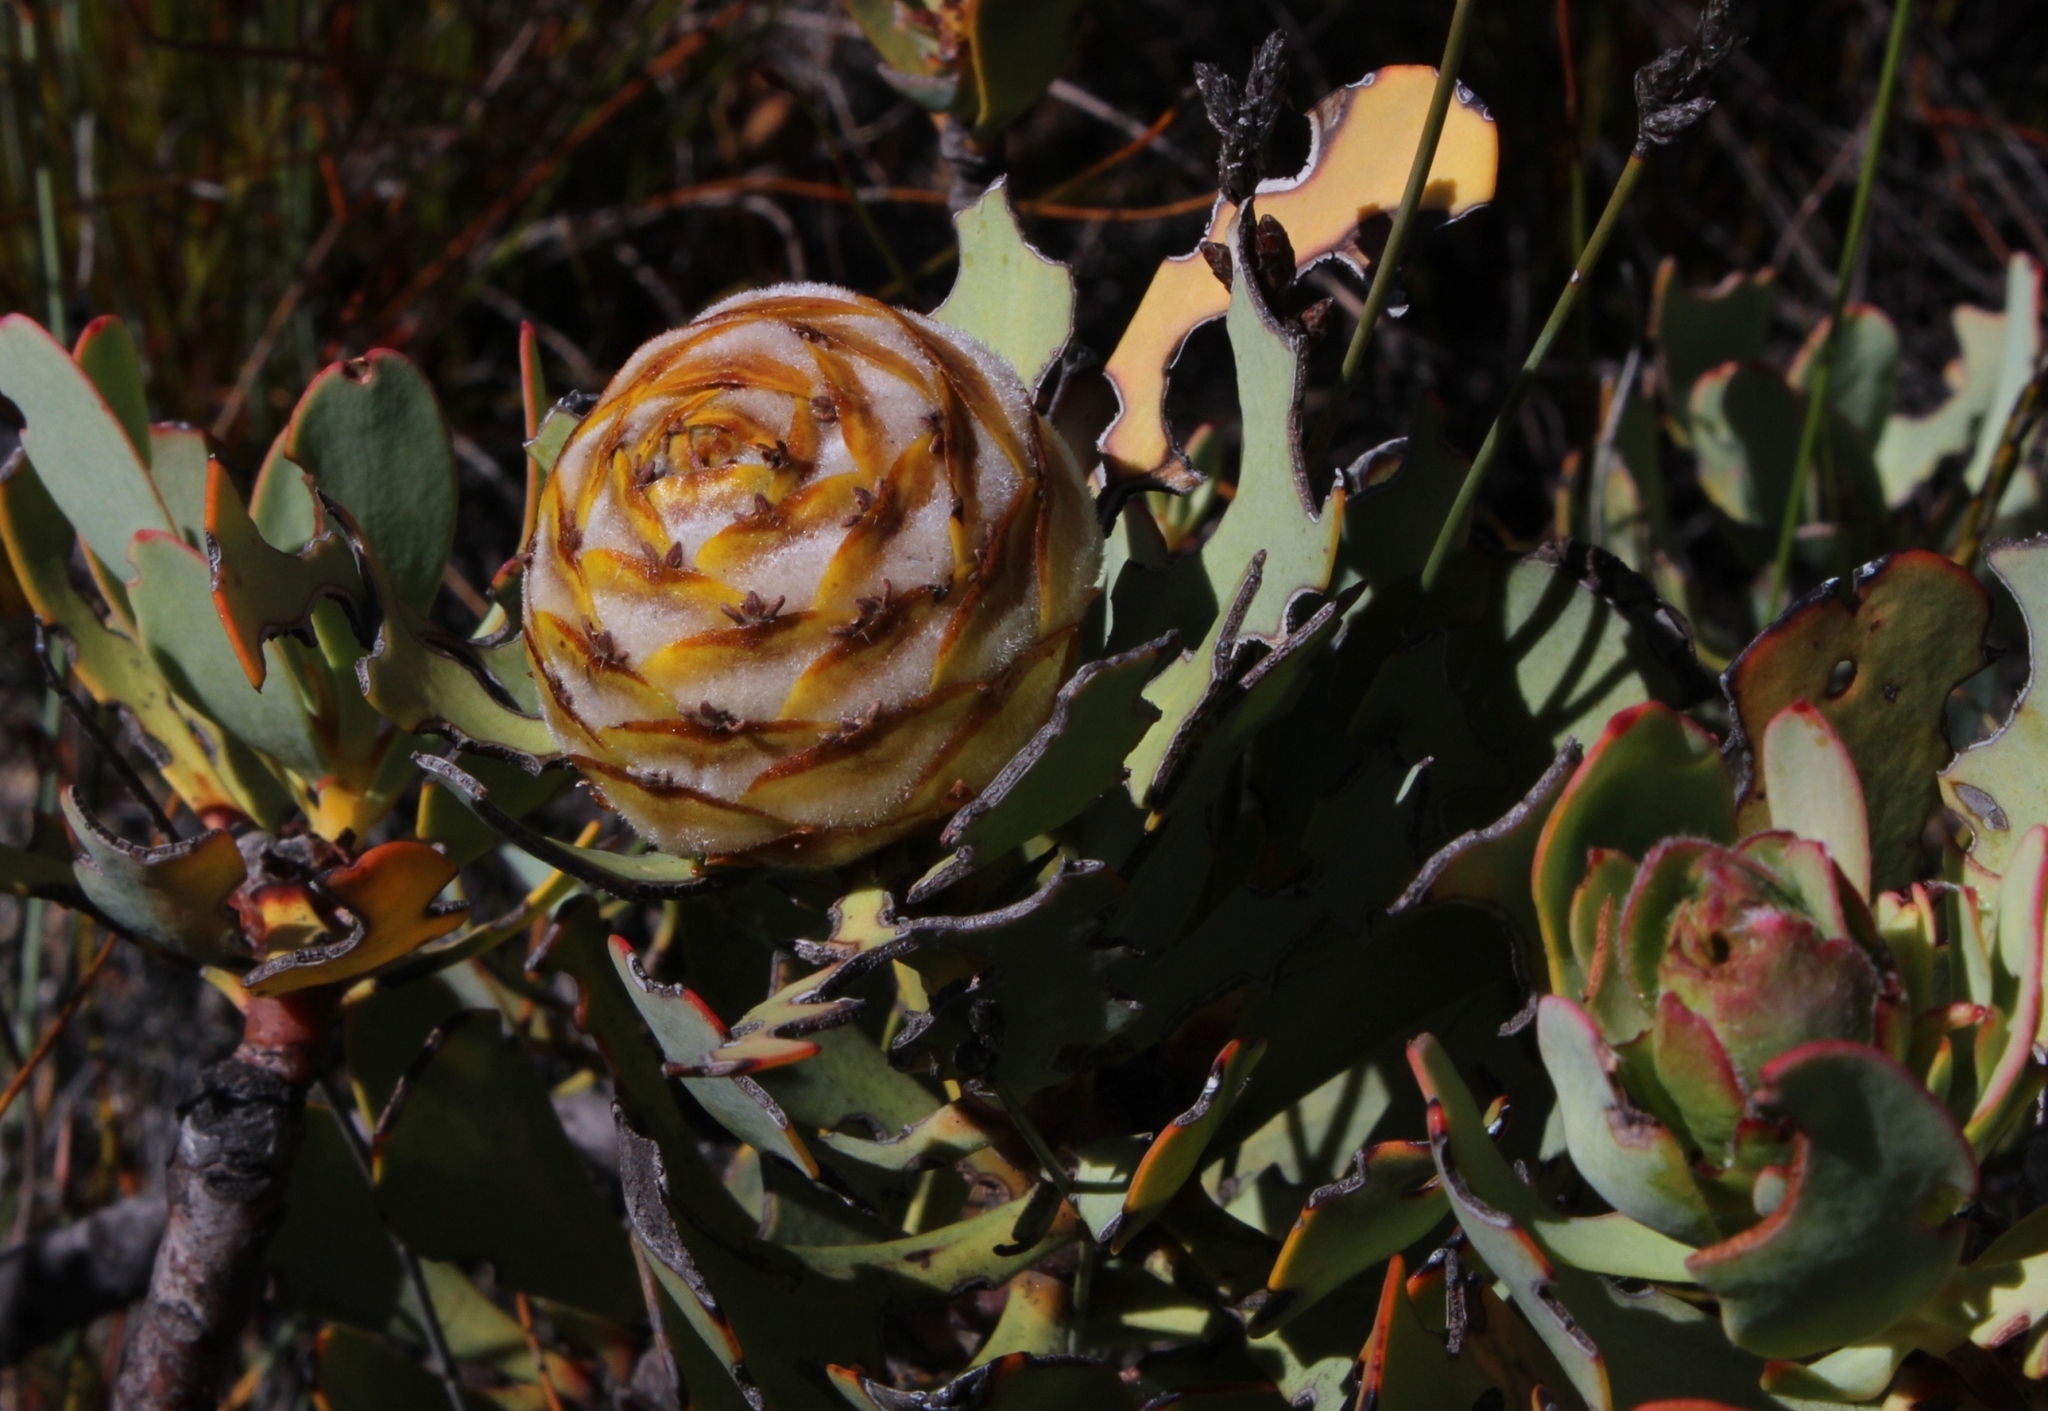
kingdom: Plantae
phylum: Tracheophyta
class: Magnoliopsida
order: Proteales
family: Proteaceae
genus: Leucadendron
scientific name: Leucadendron arcuatum
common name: Red-edge conebush
